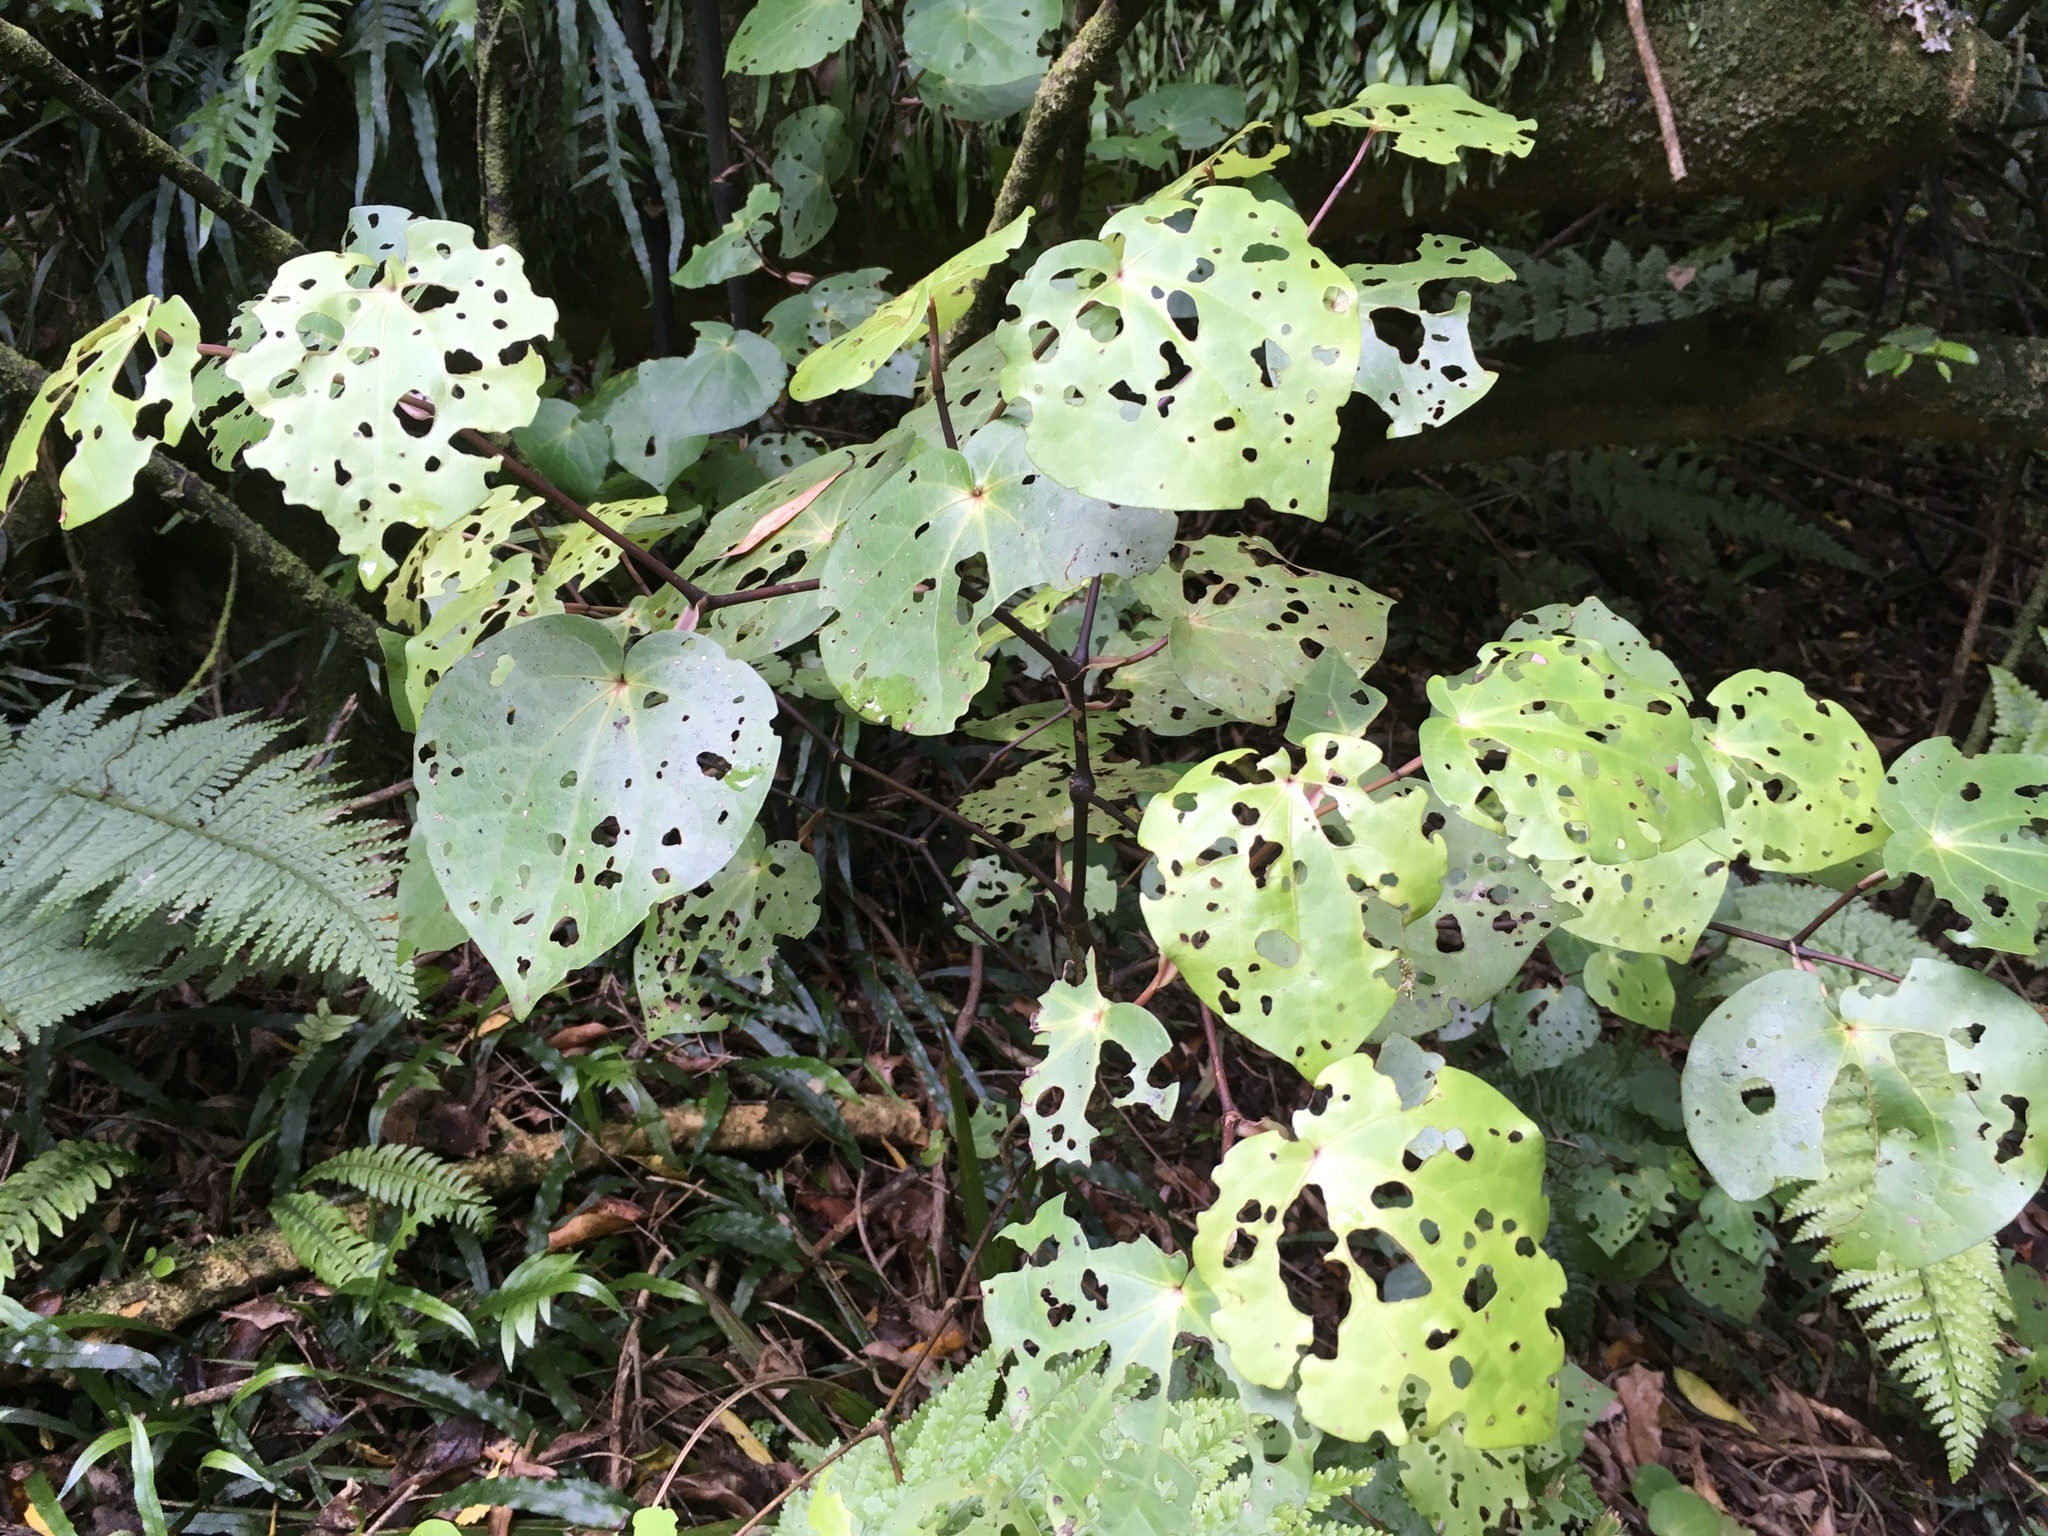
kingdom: Plantae
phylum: Tracheophyta
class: Magnoliopsida
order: Piperales
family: Piperaceae
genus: Macropiper
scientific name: Macropiper excelsum
